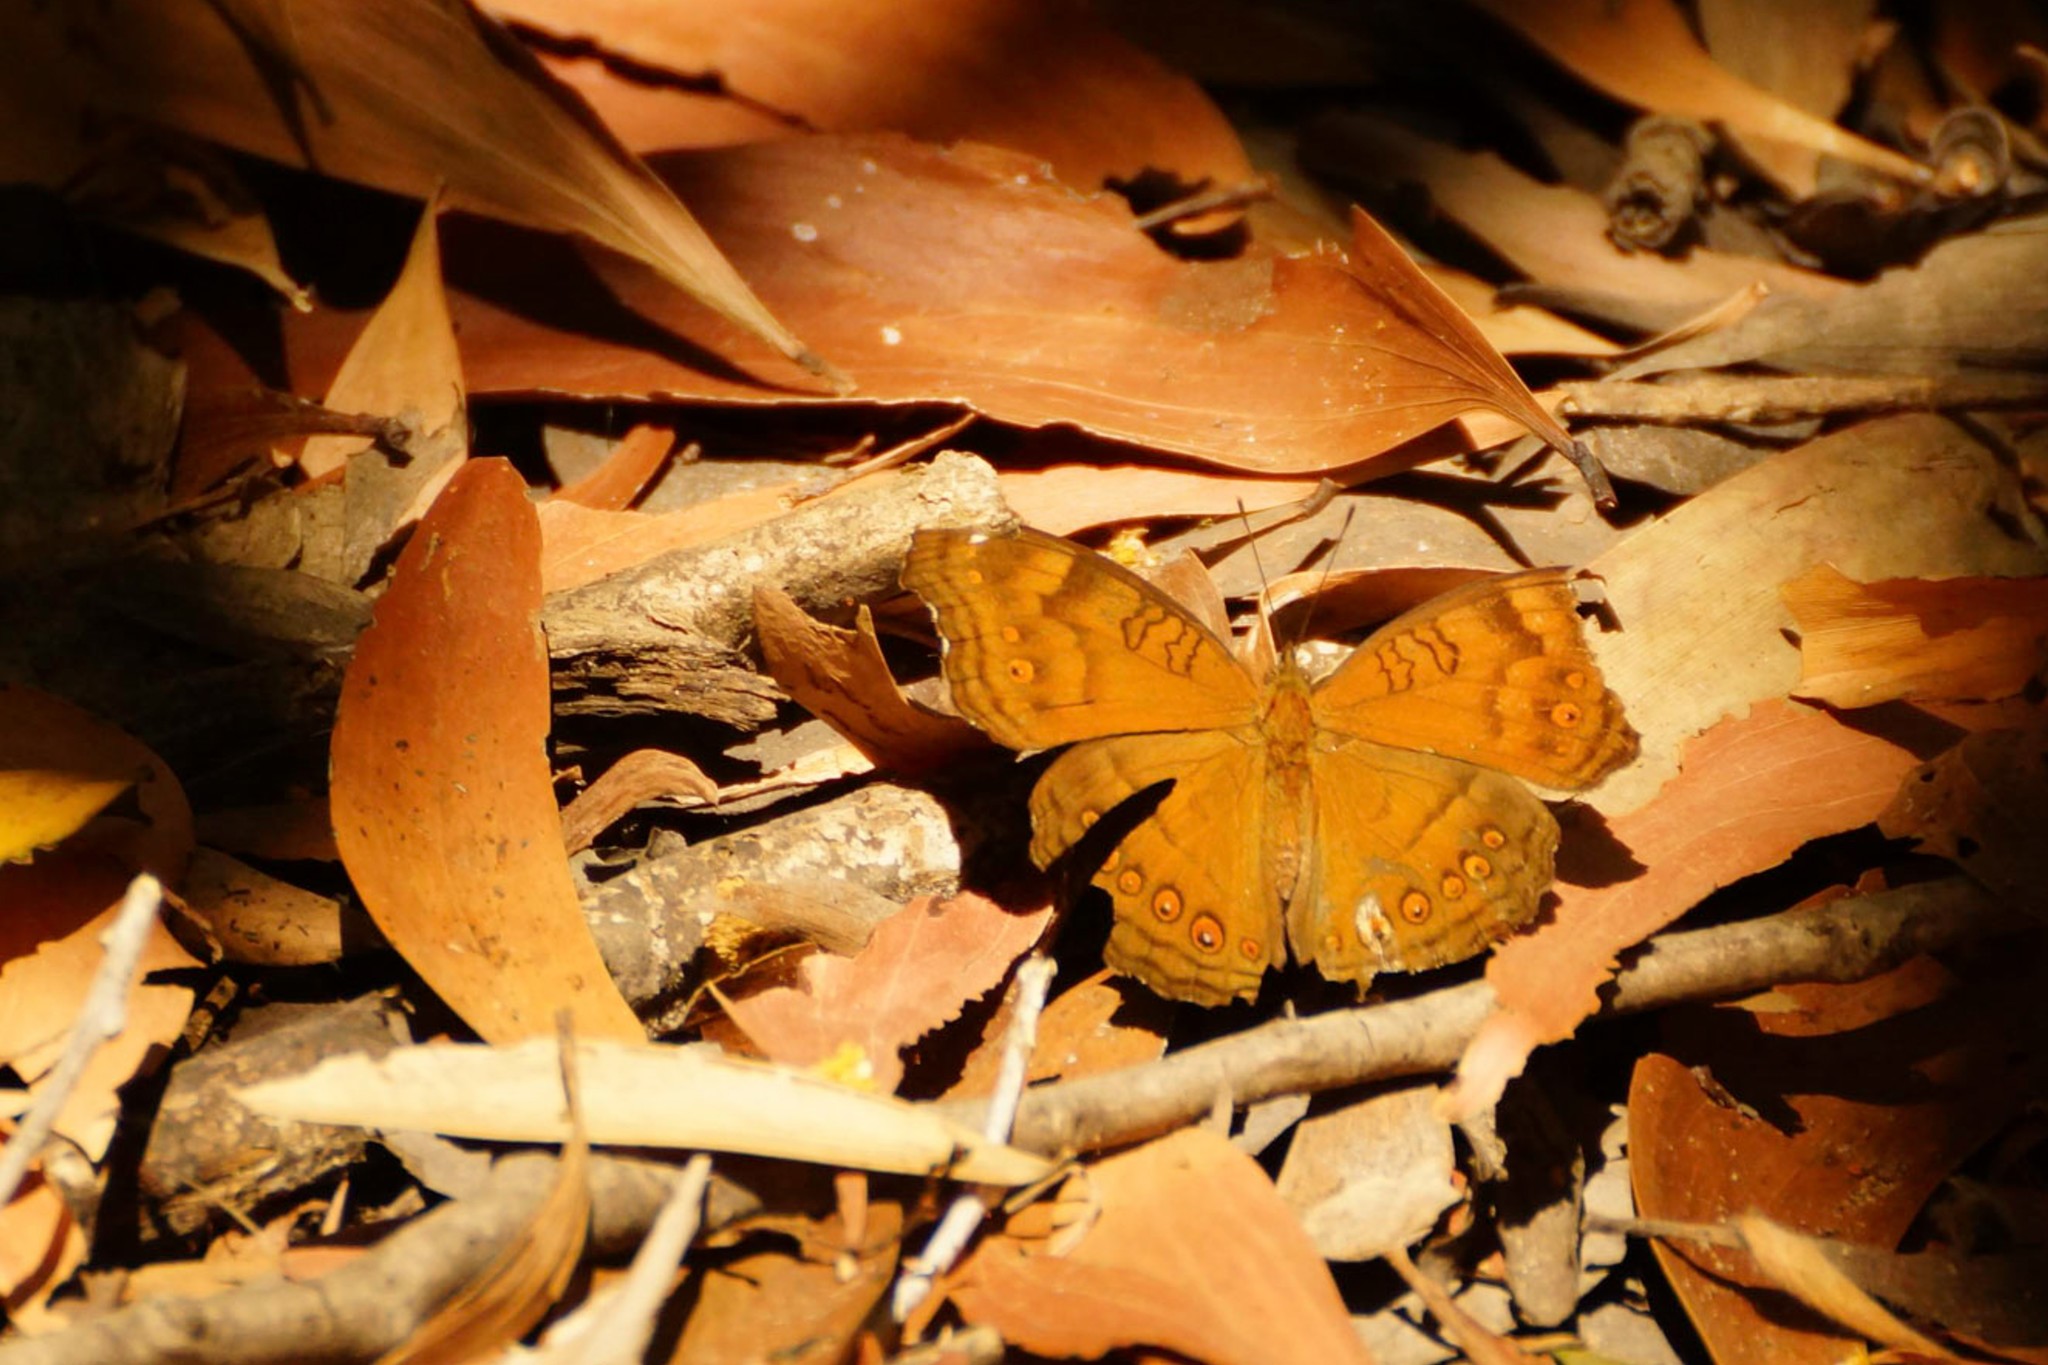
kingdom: Animalia
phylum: Arthropoda
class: Insecta
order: Lepidoptera
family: Nymphalidae
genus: Junonia
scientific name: Junonia hedonia
